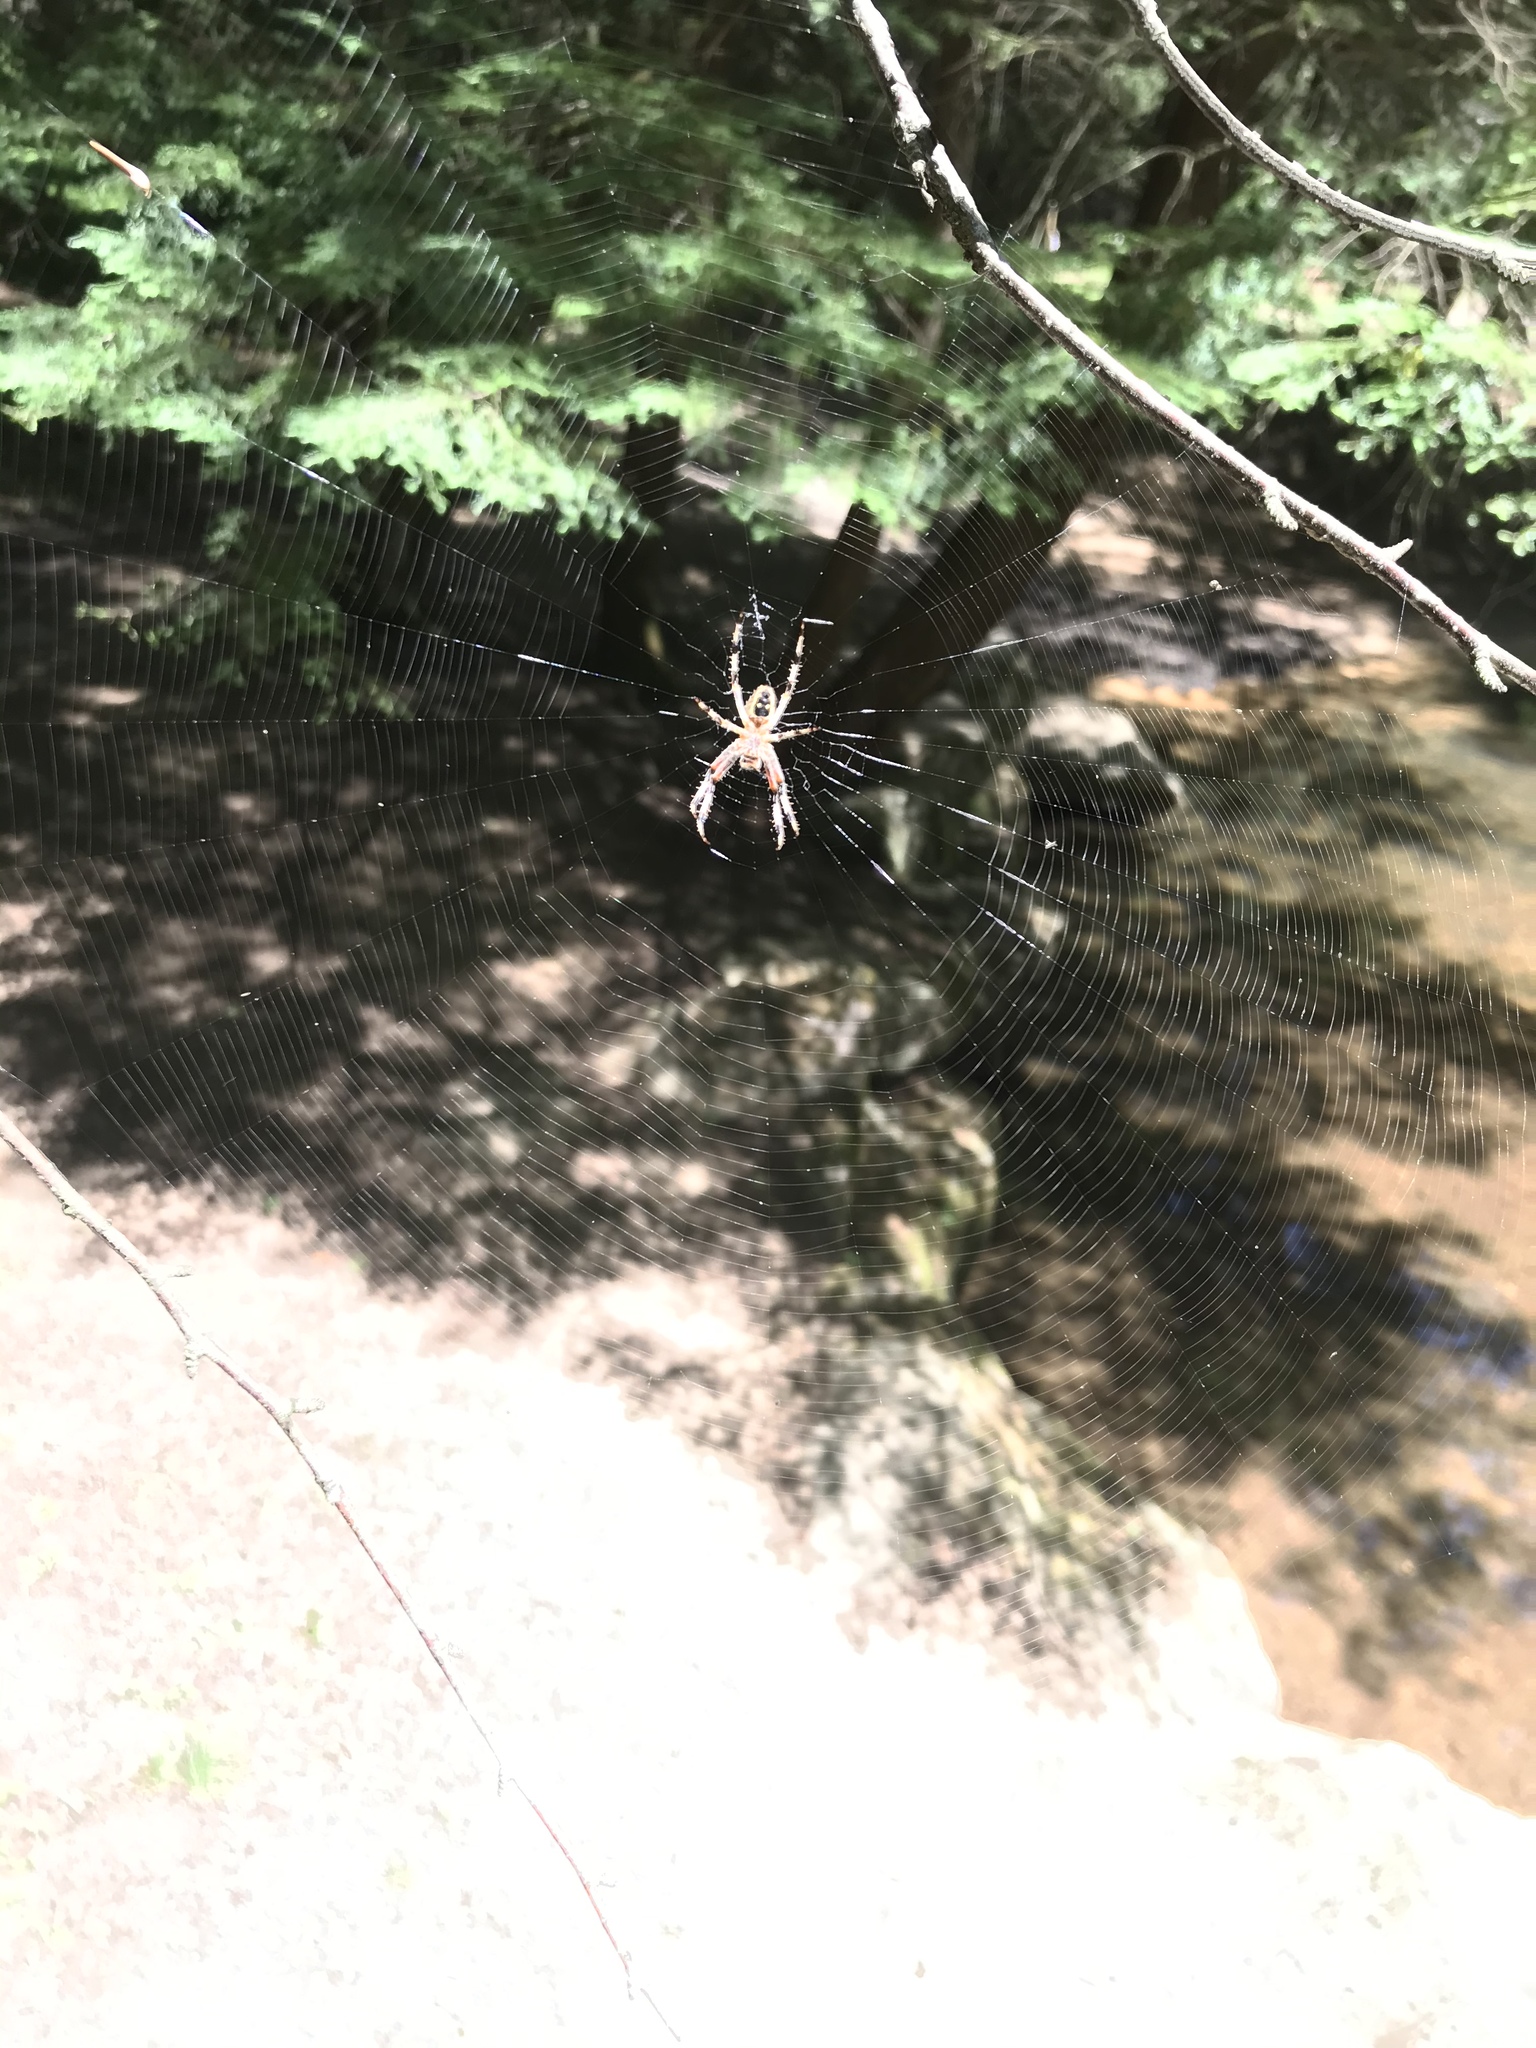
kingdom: Animalia
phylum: Arthropoda
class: Arachnida
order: Araneae
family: Araneidae
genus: Araneus
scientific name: Araneus nordmanni
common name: Nordmann's orbweaver
